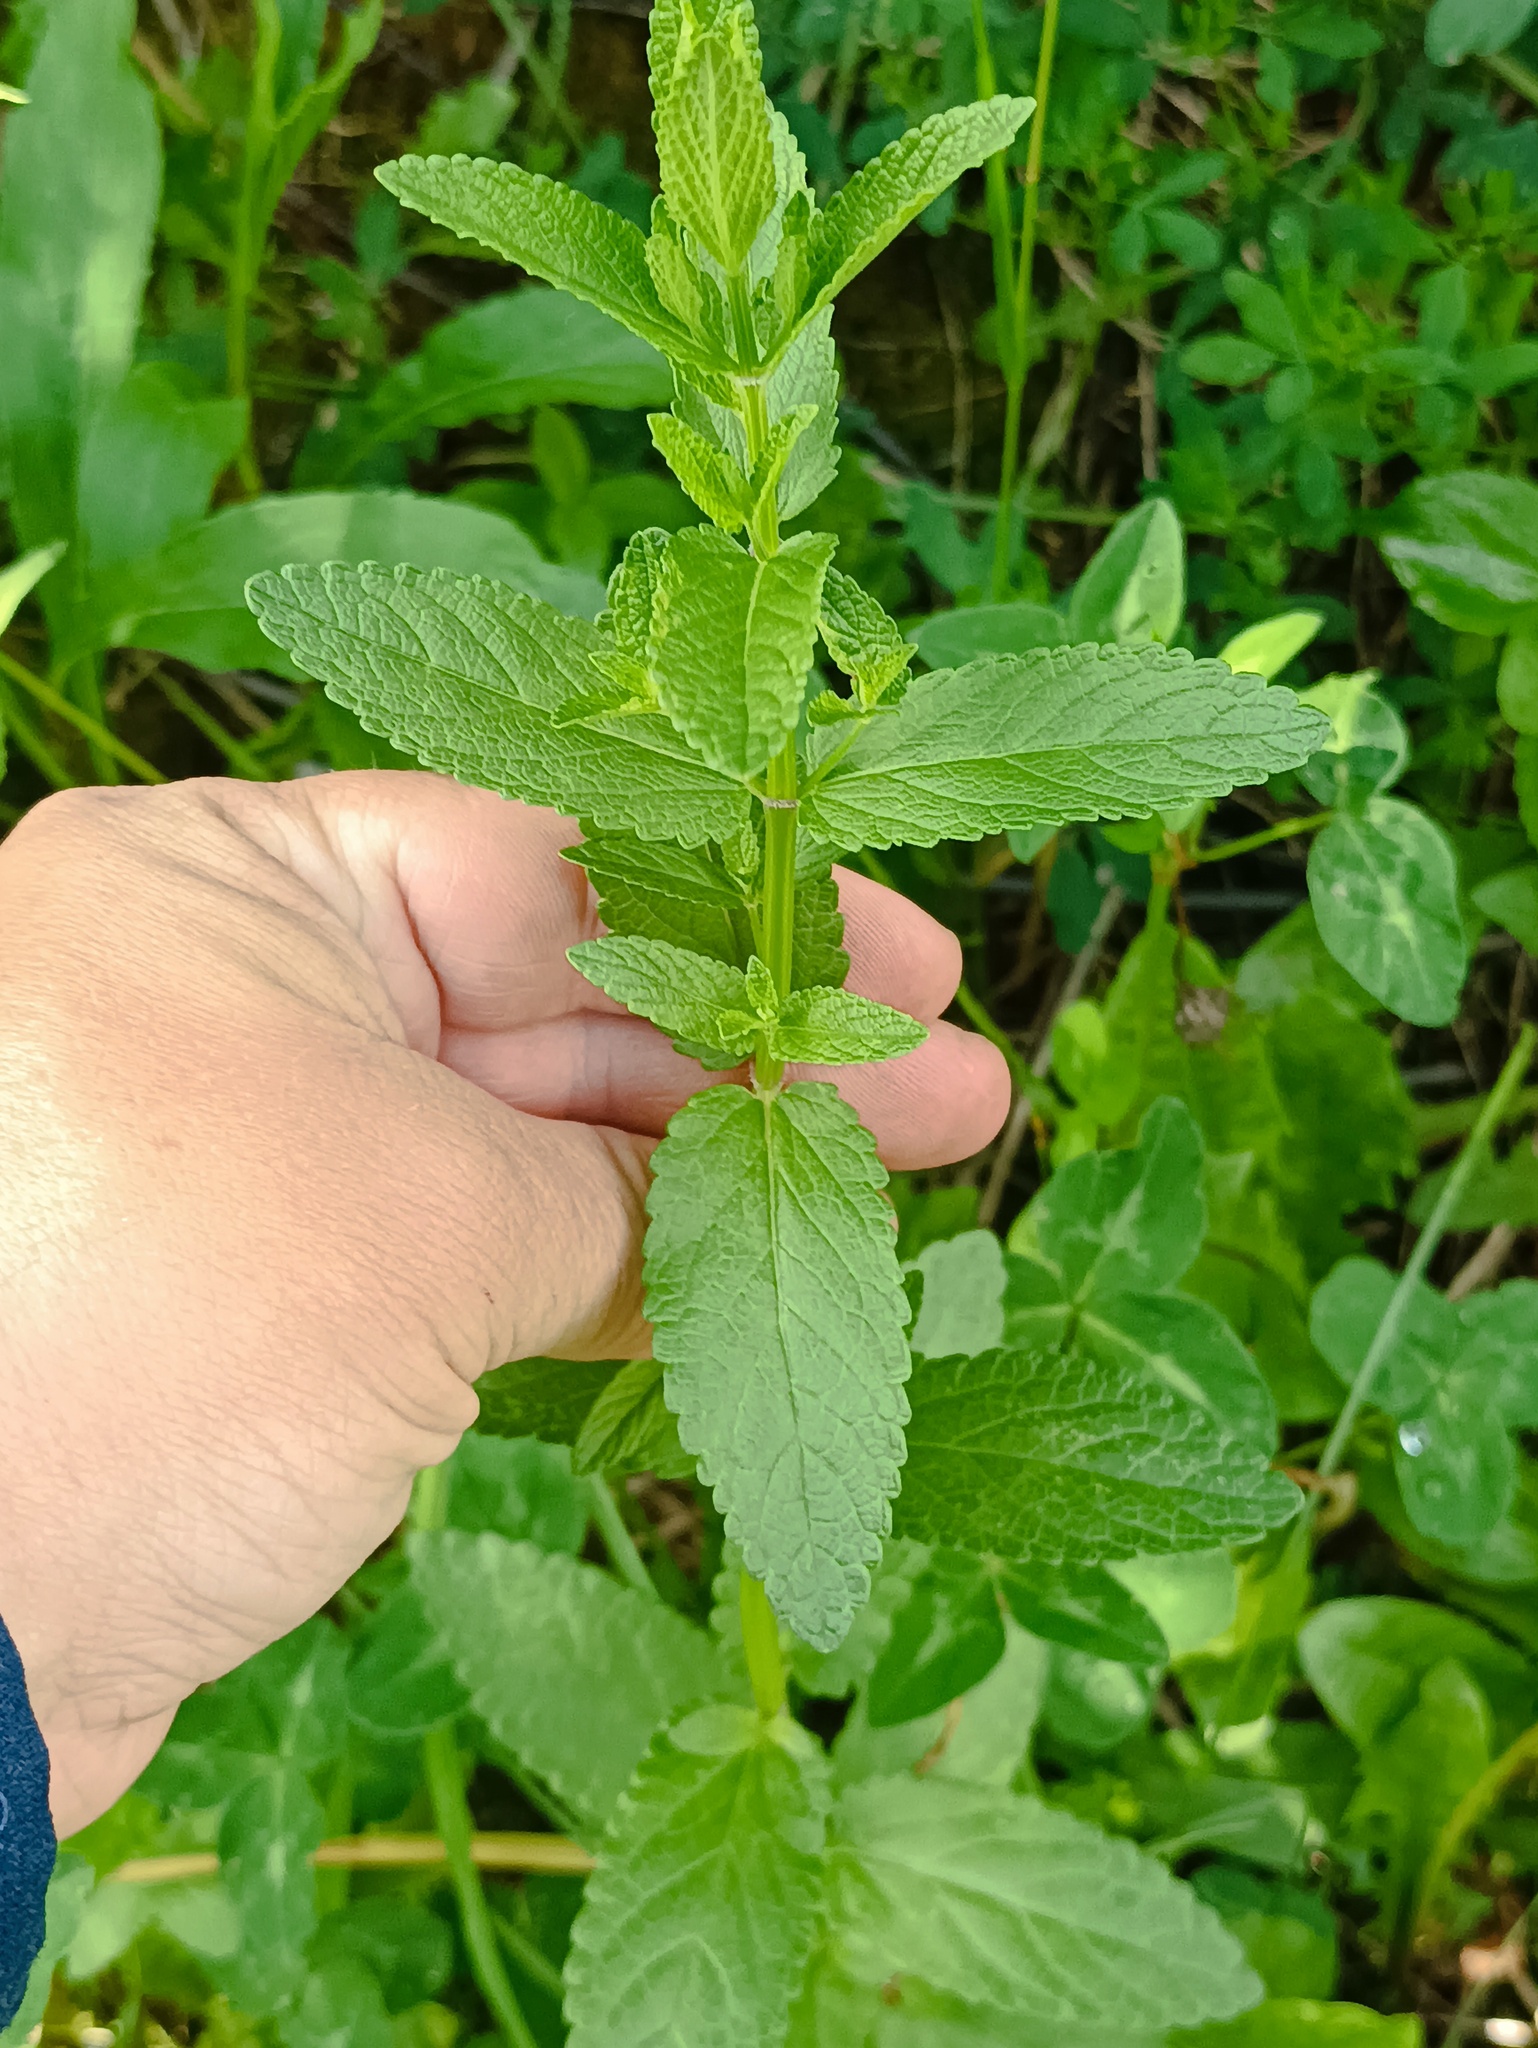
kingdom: Plantae
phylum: Tracheophyta
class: Magnoliopsida
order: Lamiales
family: Lamiaceae
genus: Nepeta
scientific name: Nepeta nuda
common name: Hairless catmint
